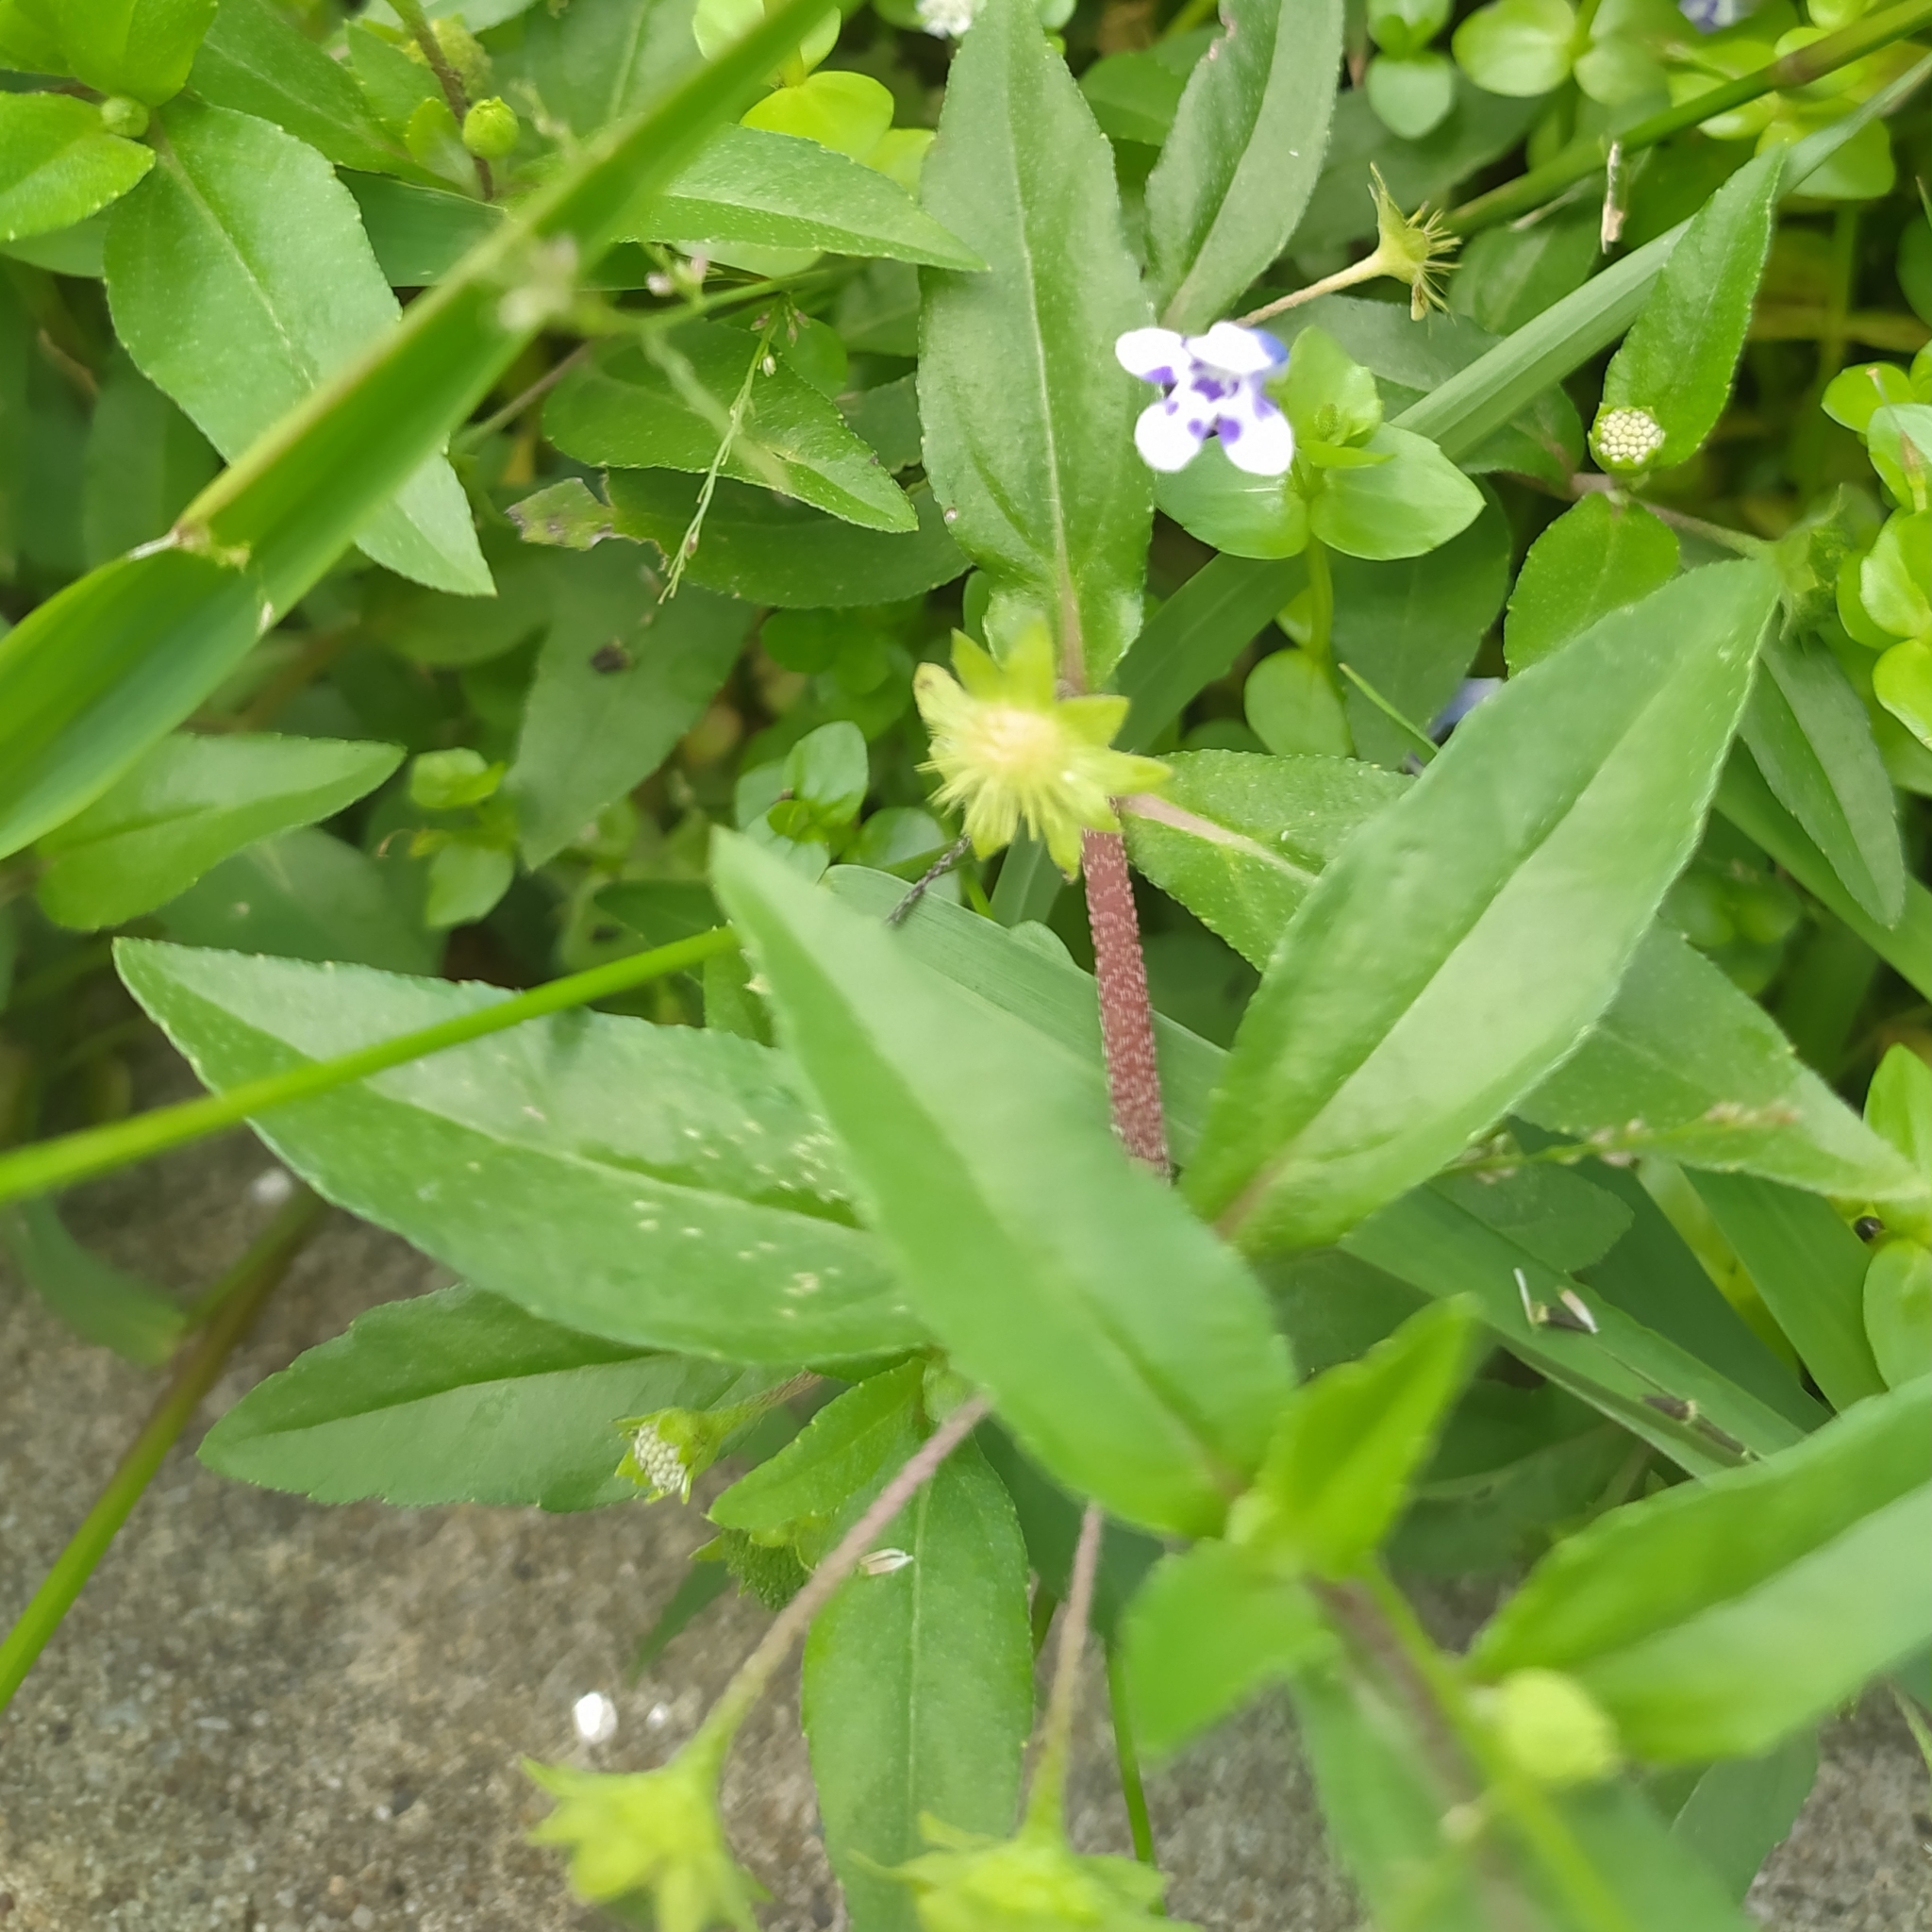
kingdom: Plantae
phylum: Tracheophyta
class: Magnoliopsida
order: Asterales
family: Asteraceae
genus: Eclipta
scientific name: Eclipta prostrata
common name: False daisy
